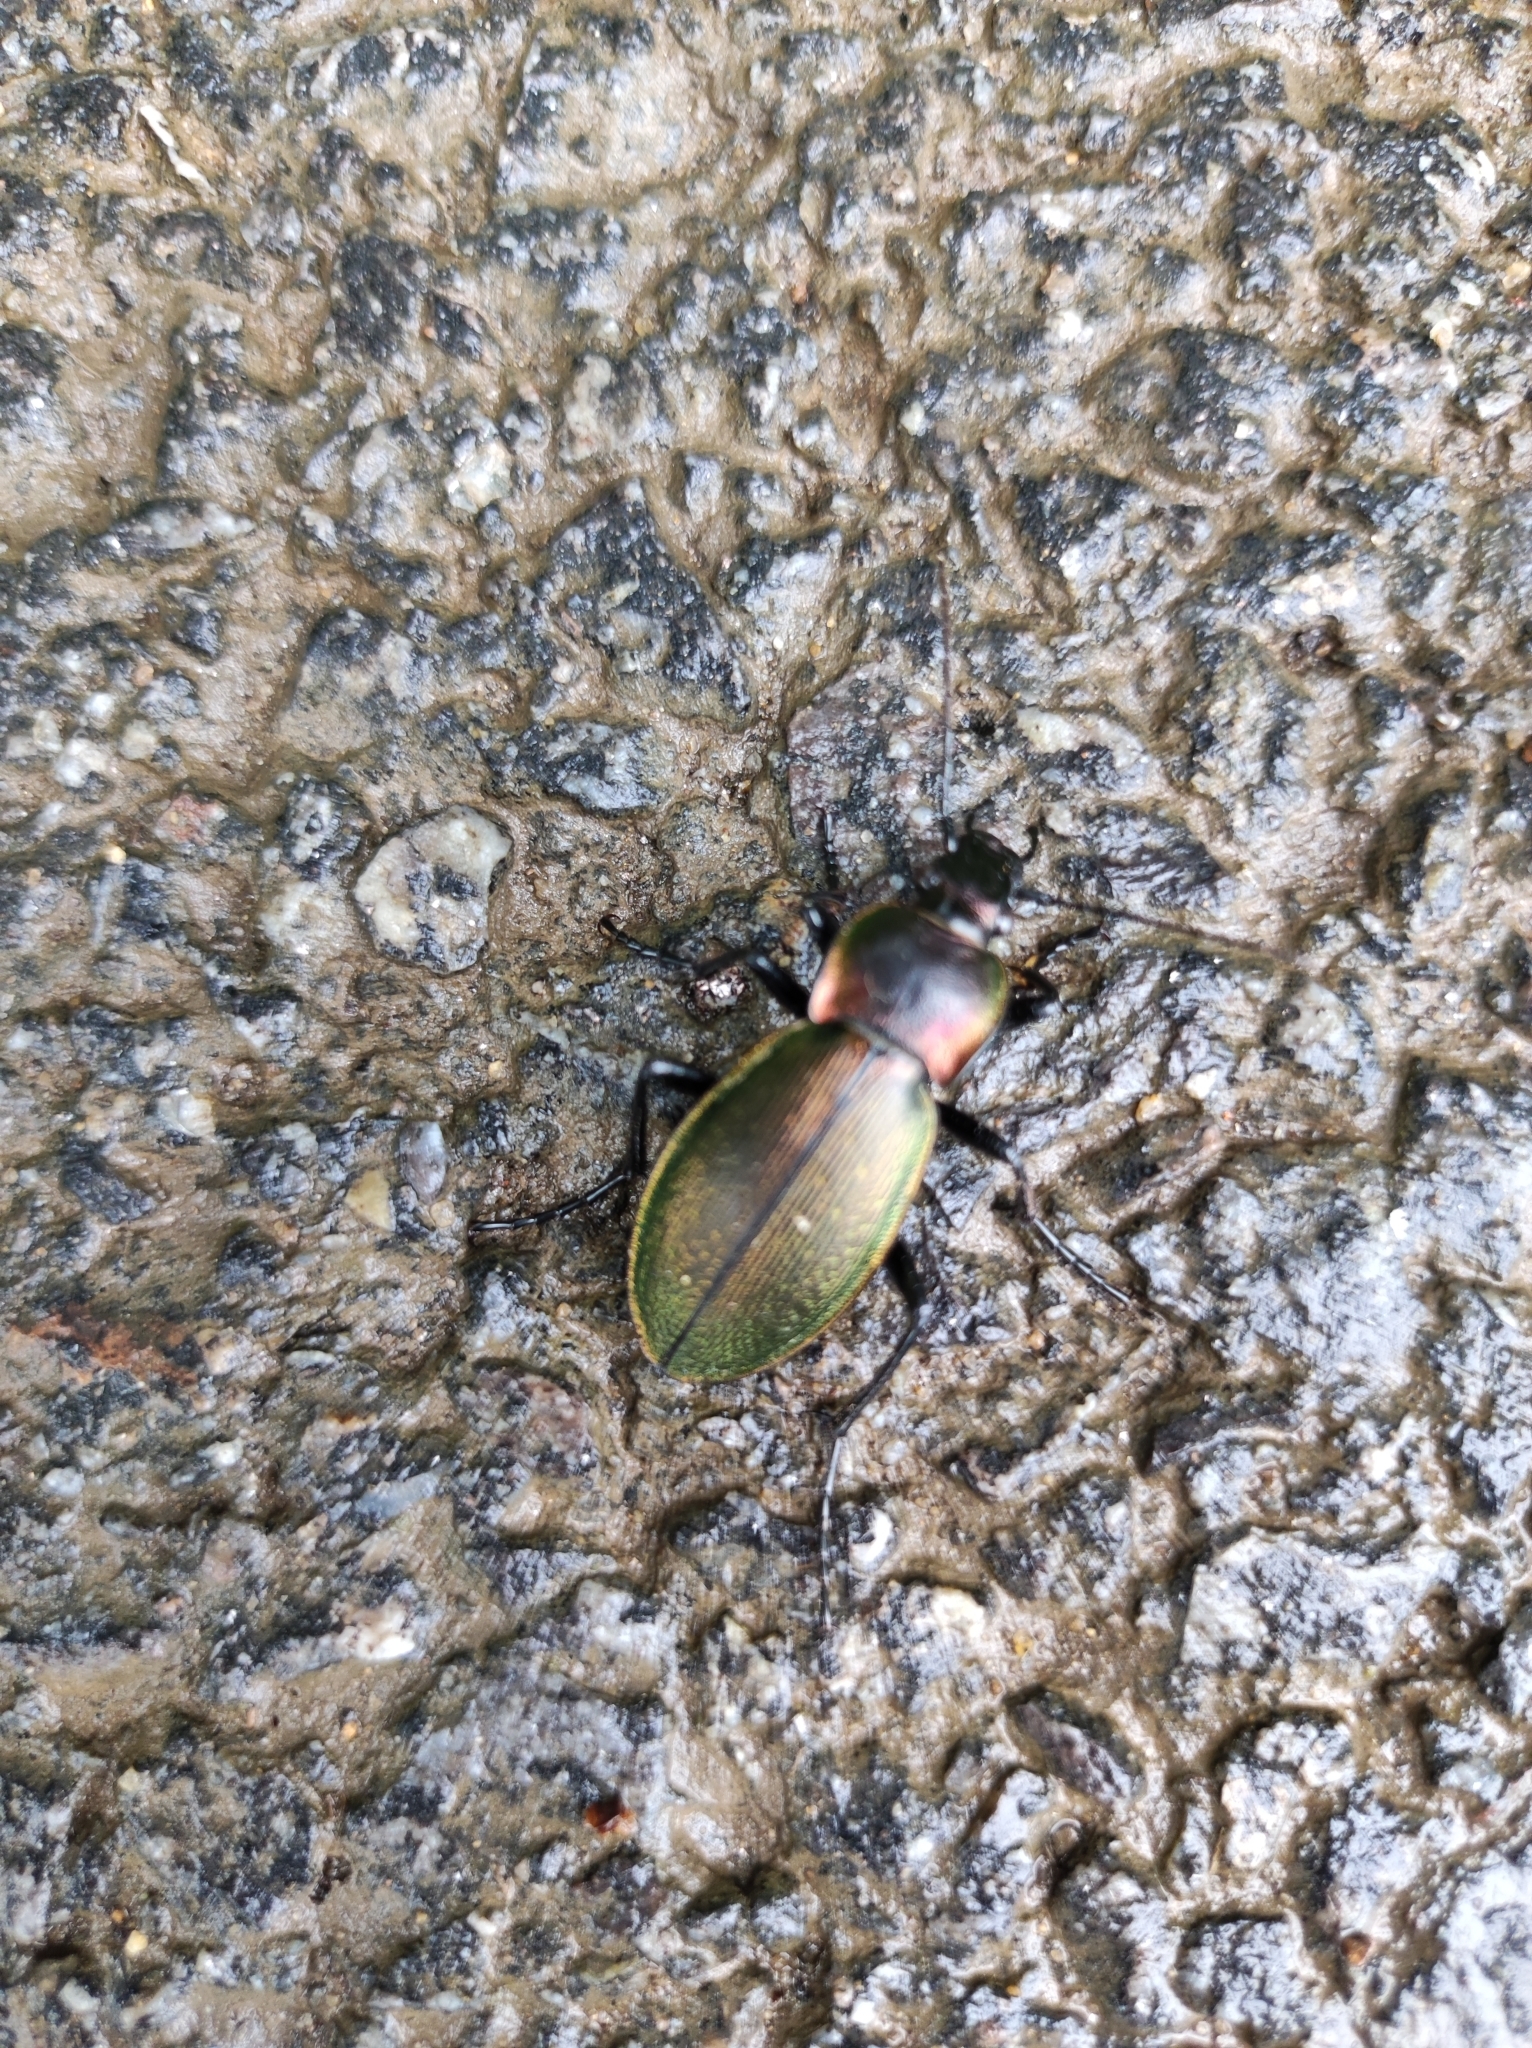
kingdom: Animalia
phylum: Arthropoda
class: Insecta
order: Coleoptera
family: Carabidae
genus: Carabus
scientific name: Carabus scheidleri
